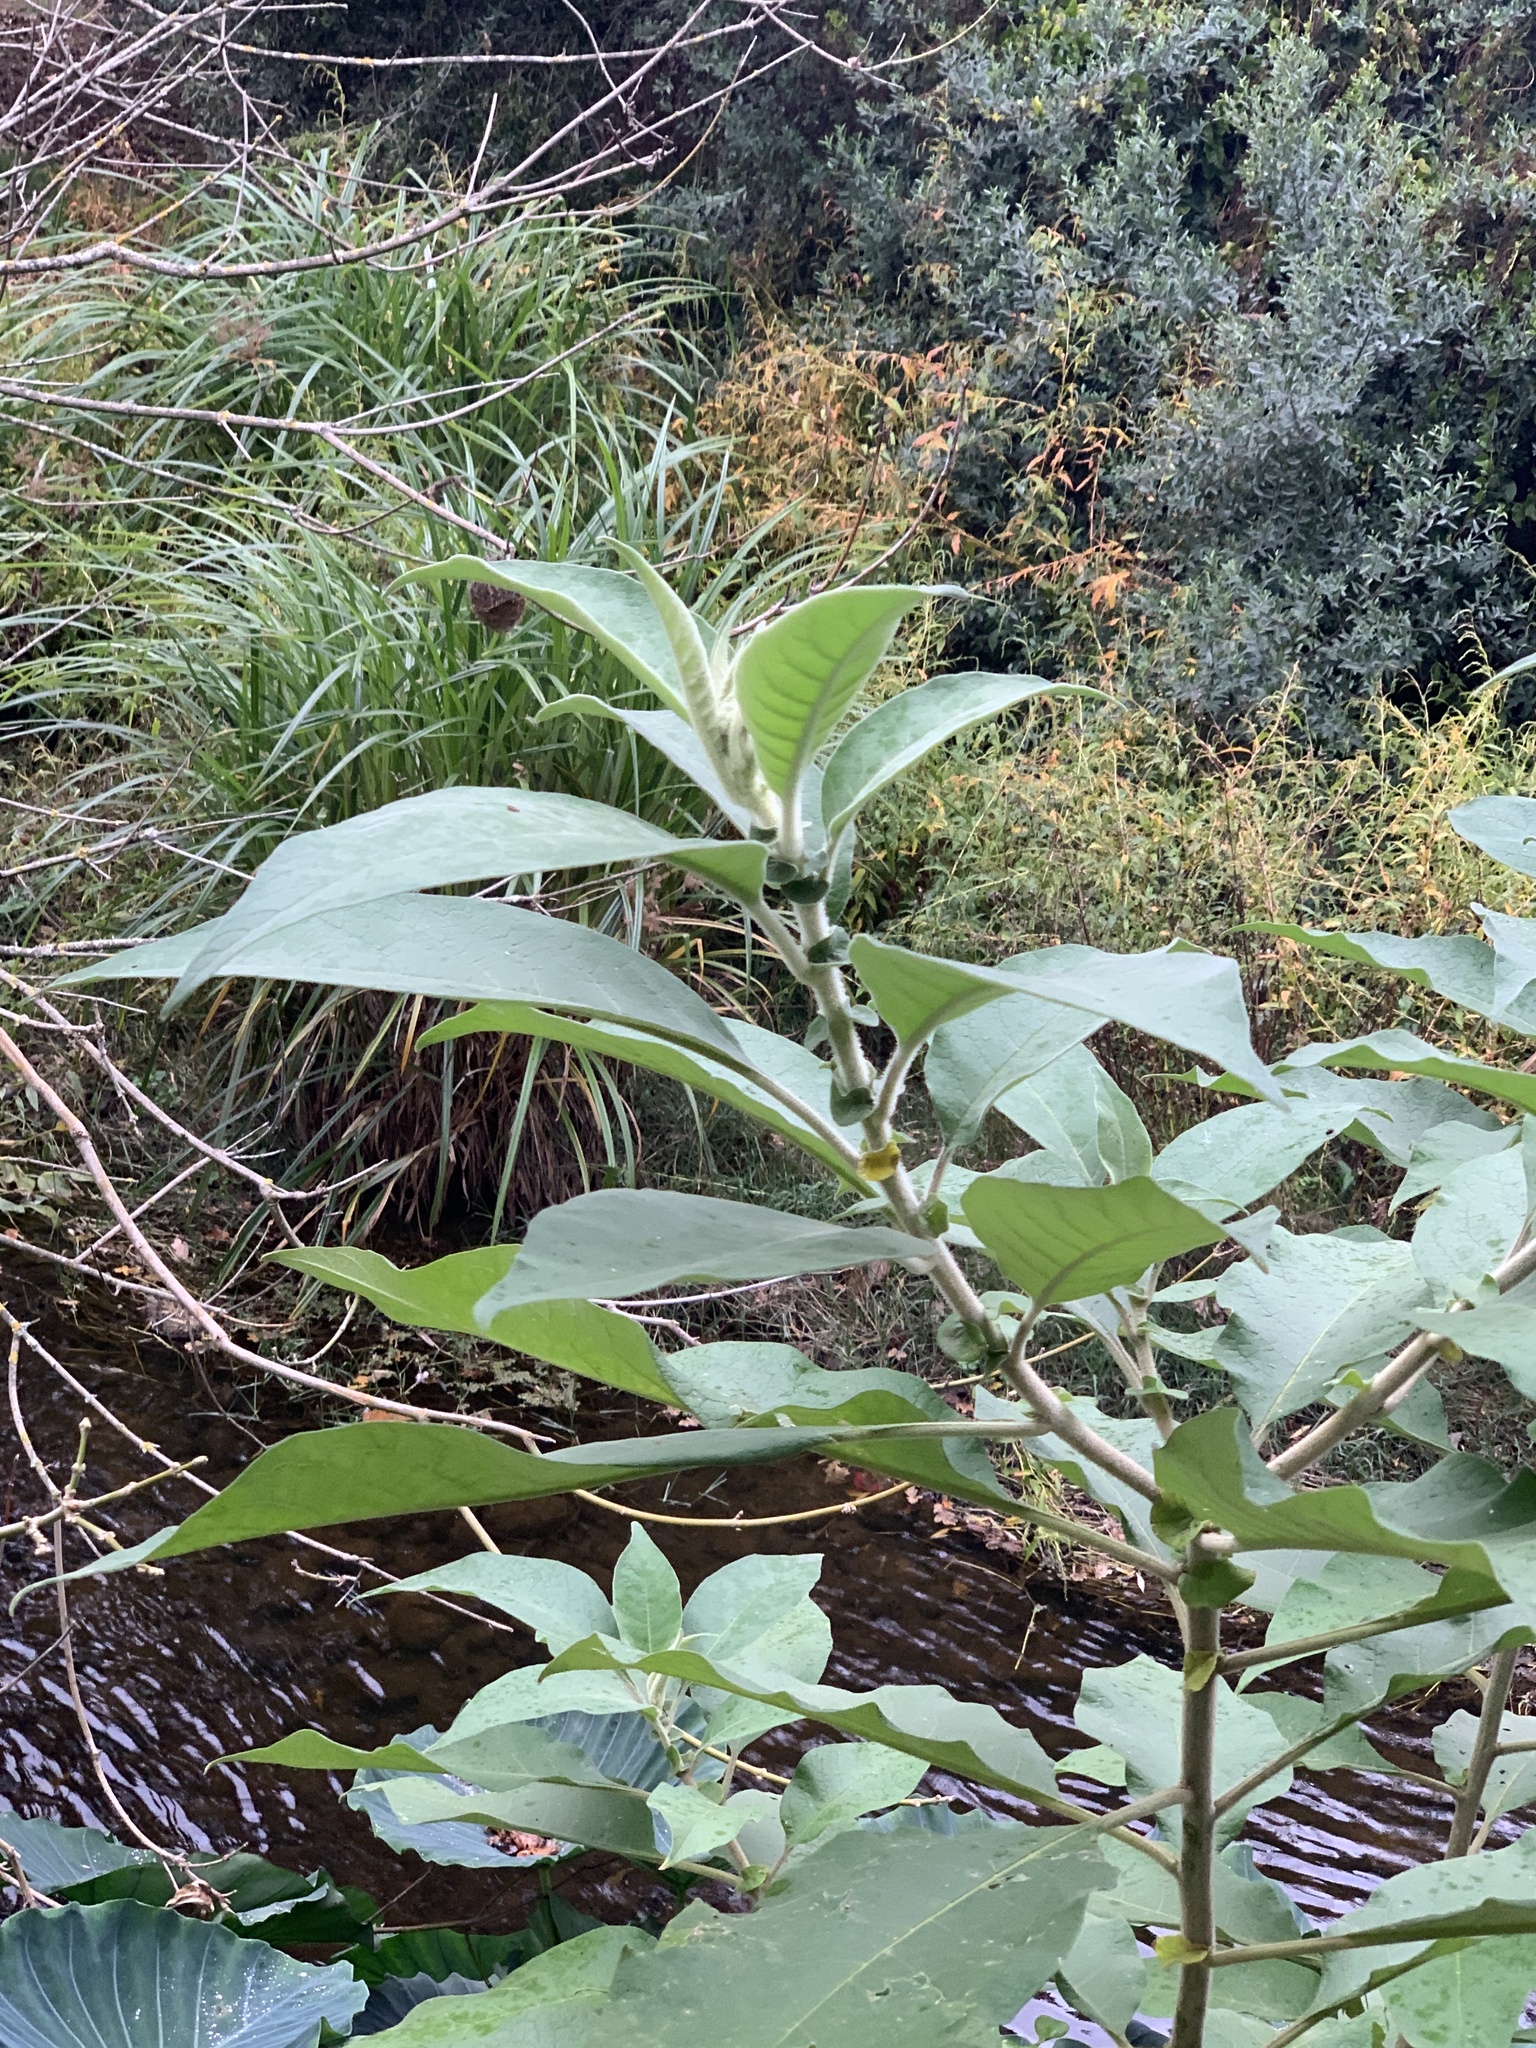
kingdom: Plantae
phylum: Tracheophyta
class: Magnoliopsida
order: Solanales
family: Solanaceae
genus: Solanum
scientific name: Solanum mauritianum
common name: Earleaf nightshade
